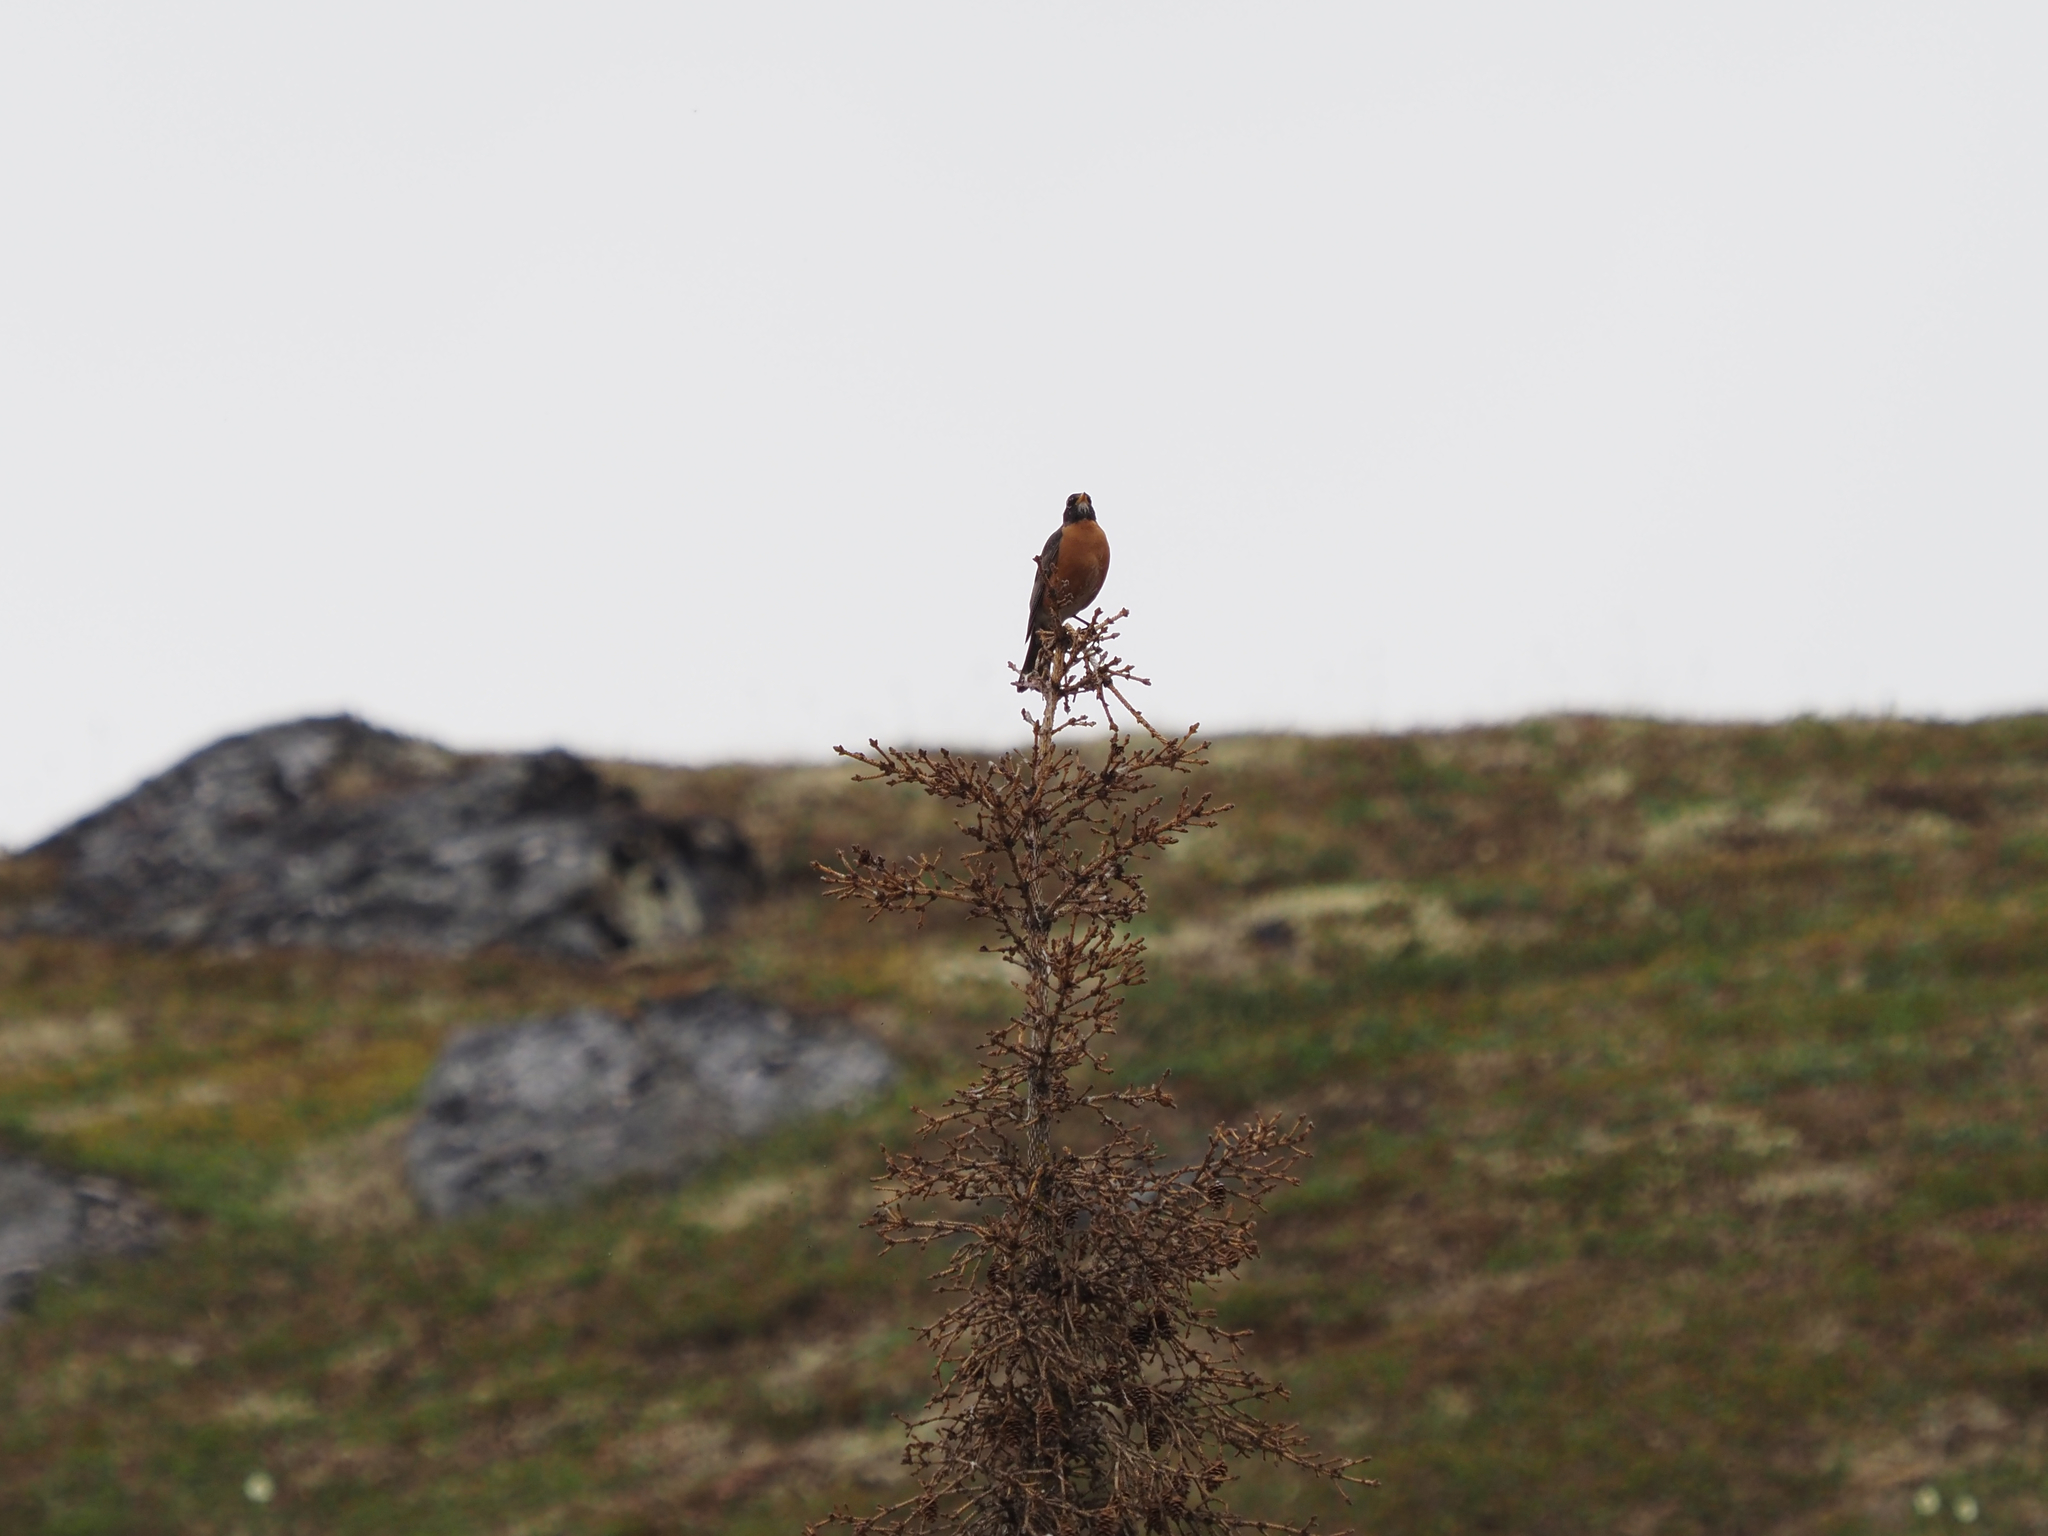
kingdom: Animalia
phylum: Chordata
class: Aves
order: Passeriformes
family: Turdidae
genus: Turdus
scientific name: Turdus migratorius
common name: American robin
